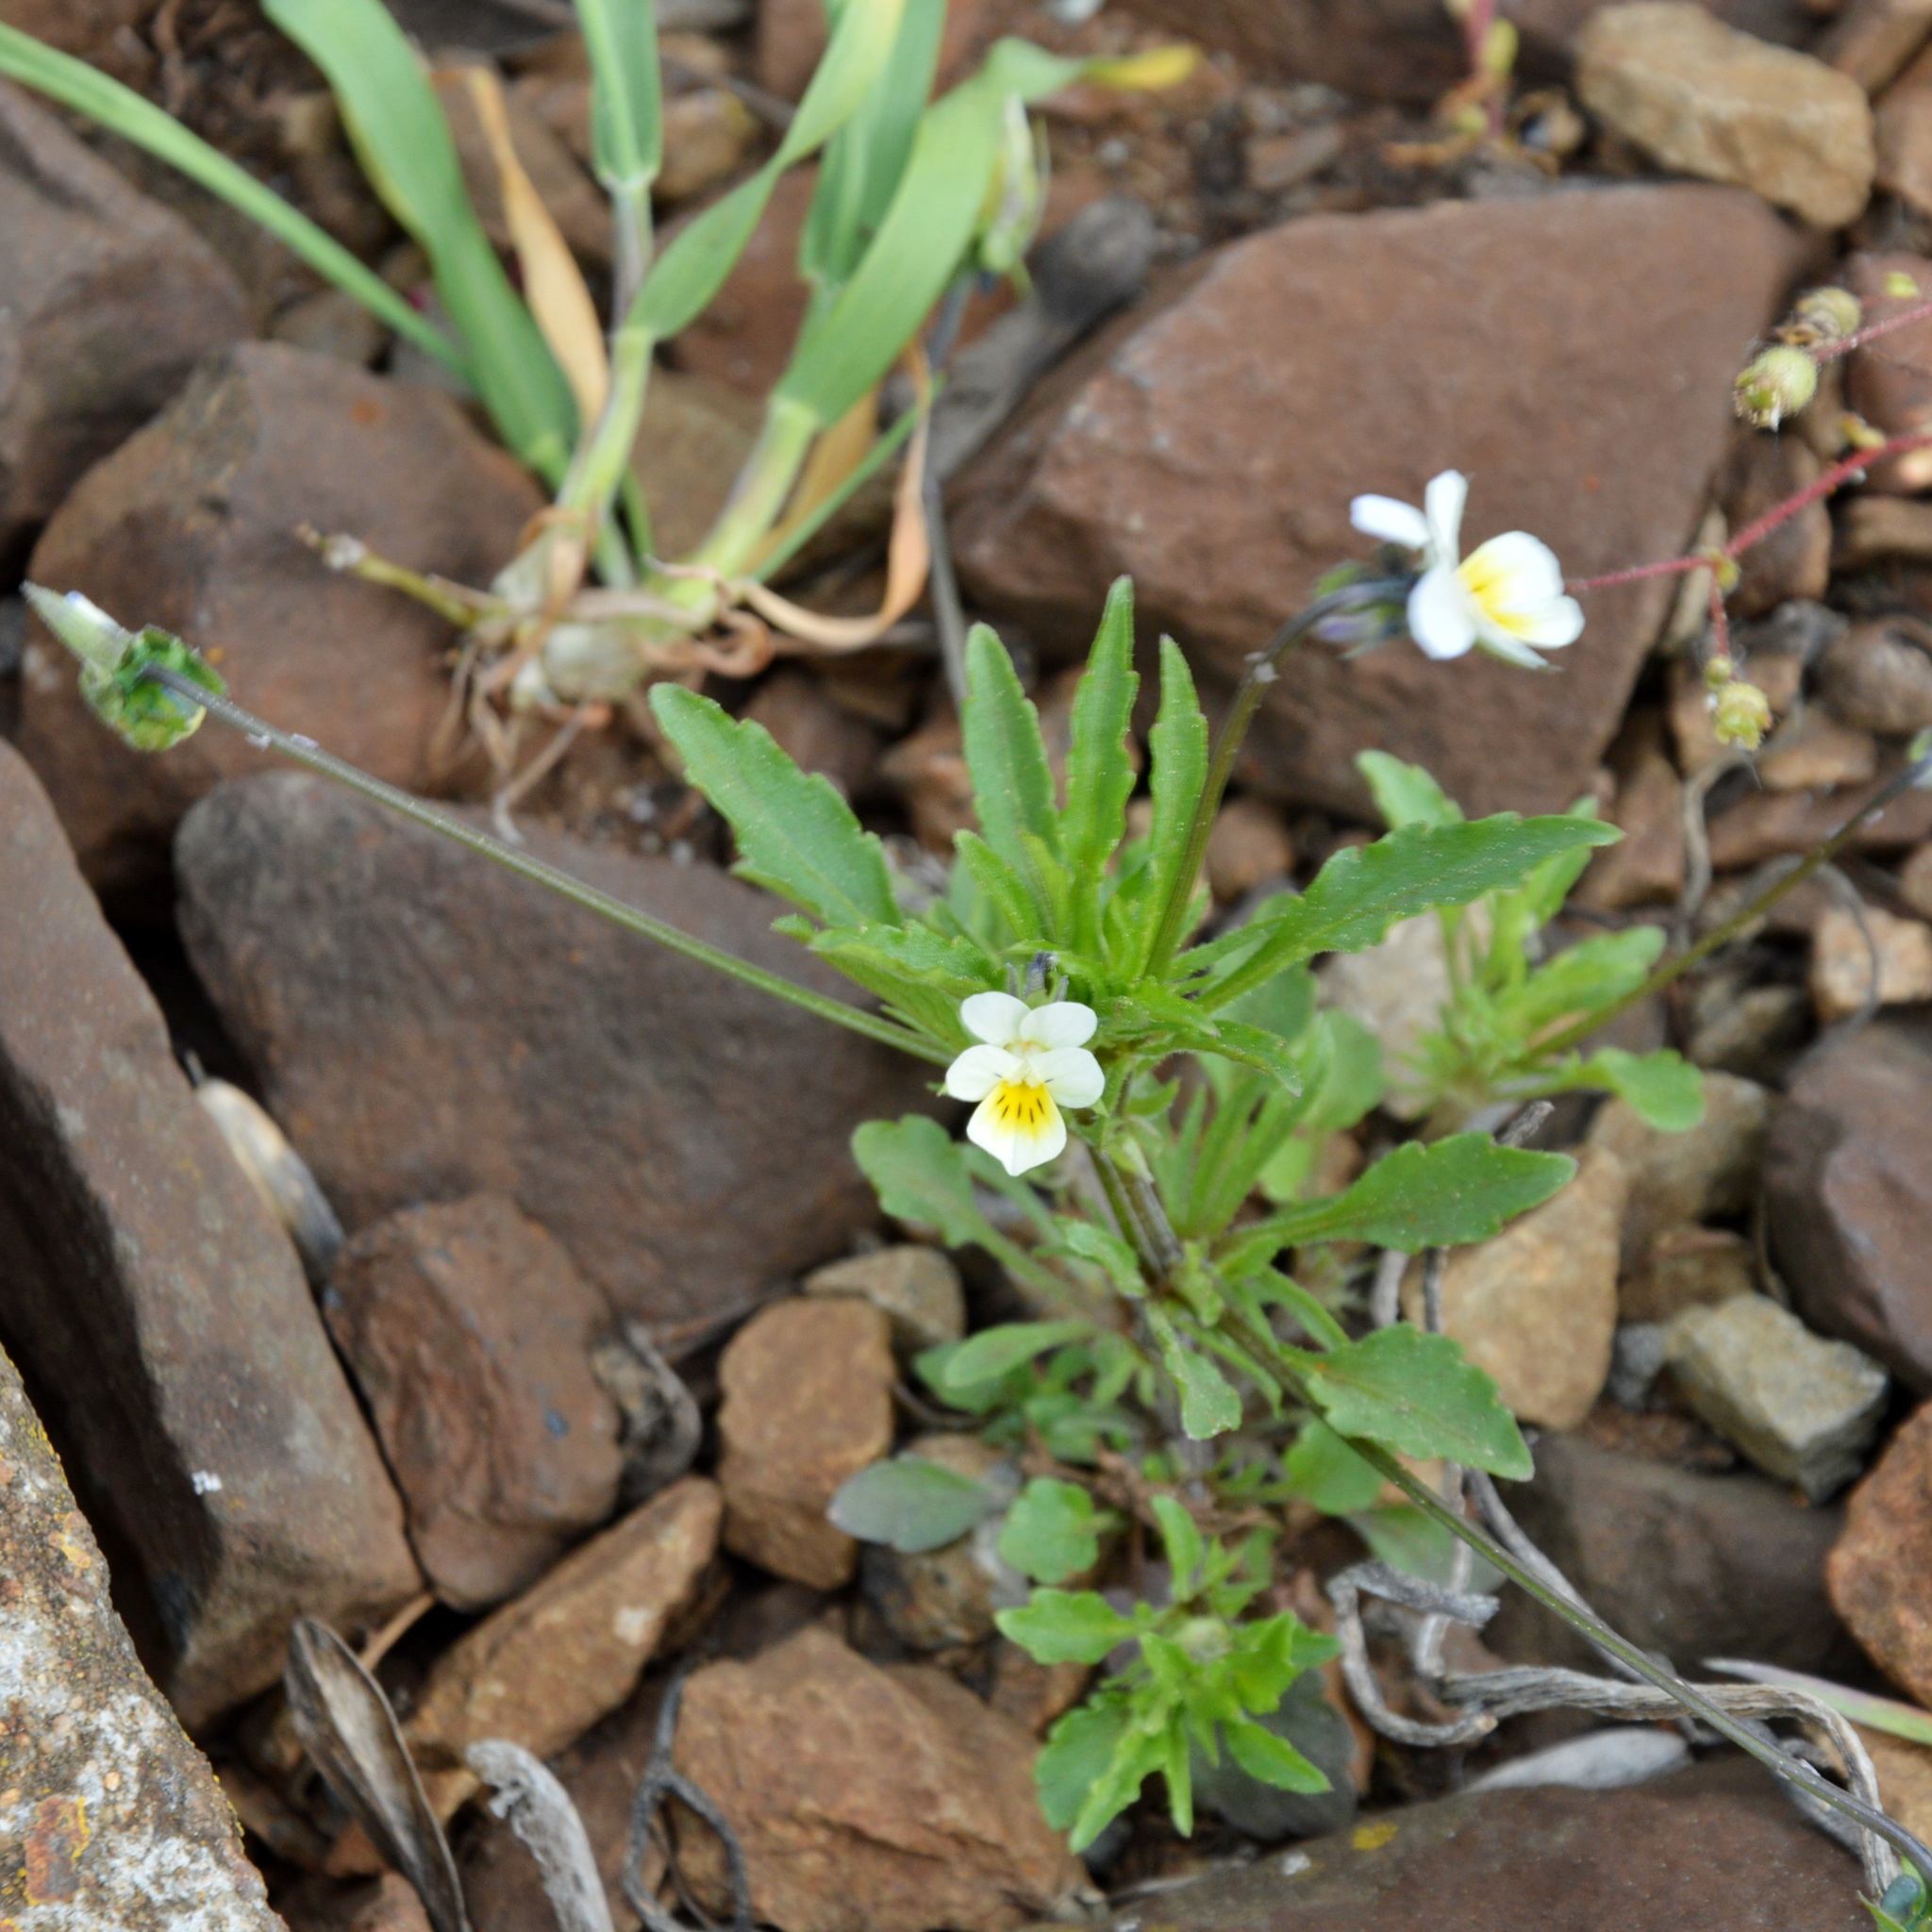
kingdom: Plantae
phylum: Tracheophyta
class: Magnoliopsida
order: Malpighiales
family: Violaceae
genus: Viola
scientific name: Viola arvensis
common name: Field pansy
